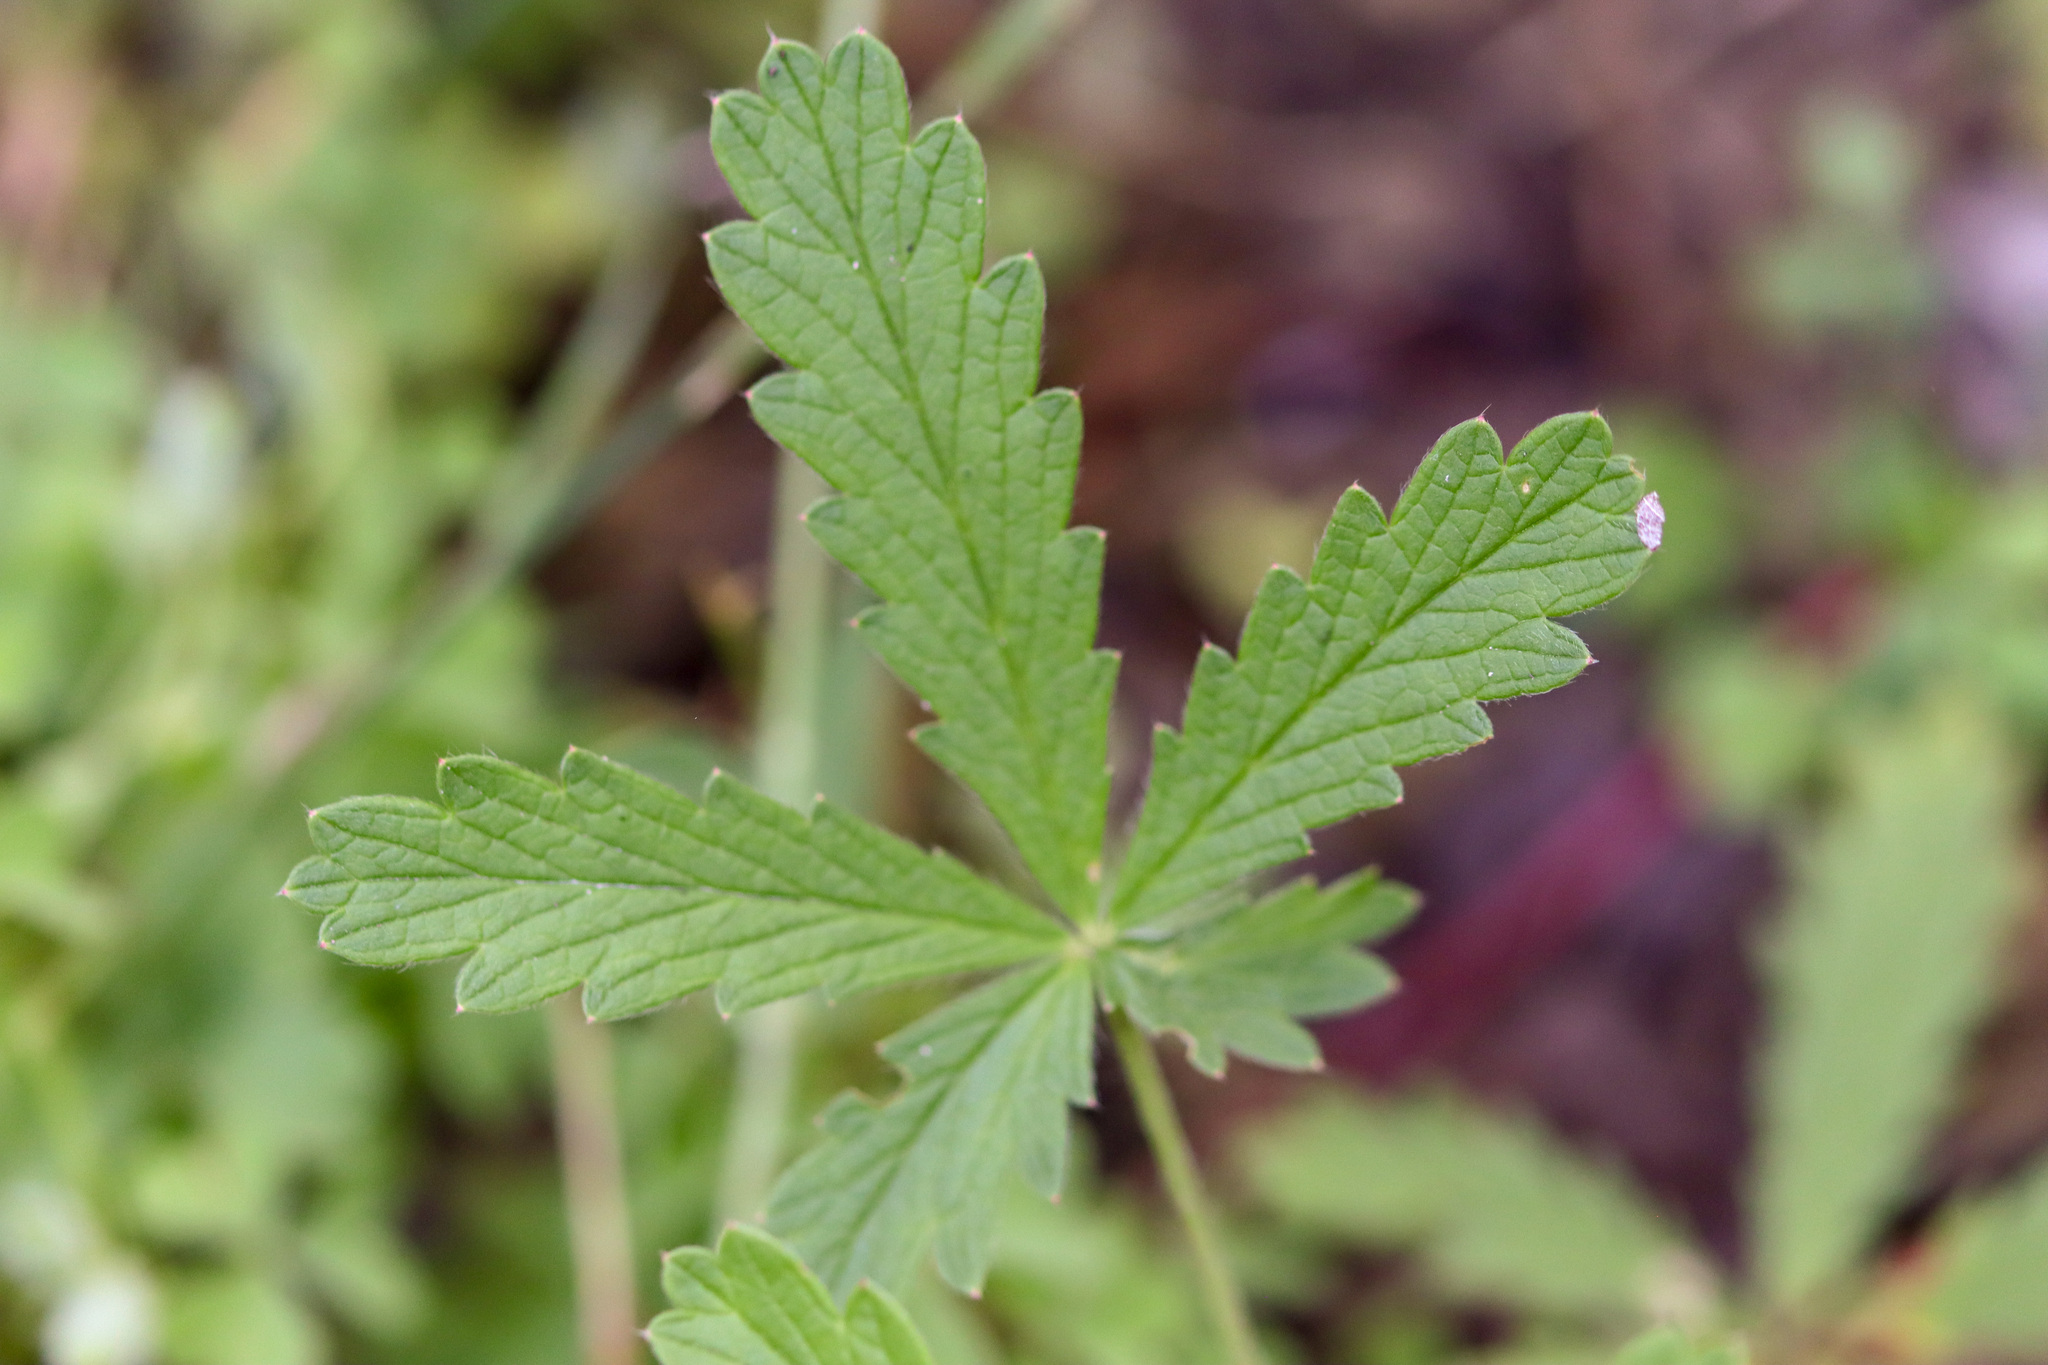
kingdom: Plantae
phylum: Tracheophyta
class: Magnoliopsida
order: Rosales
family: Rosaceae
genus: Potentilla
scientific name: Potentilla recta
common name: Sulphur cinquefoil
